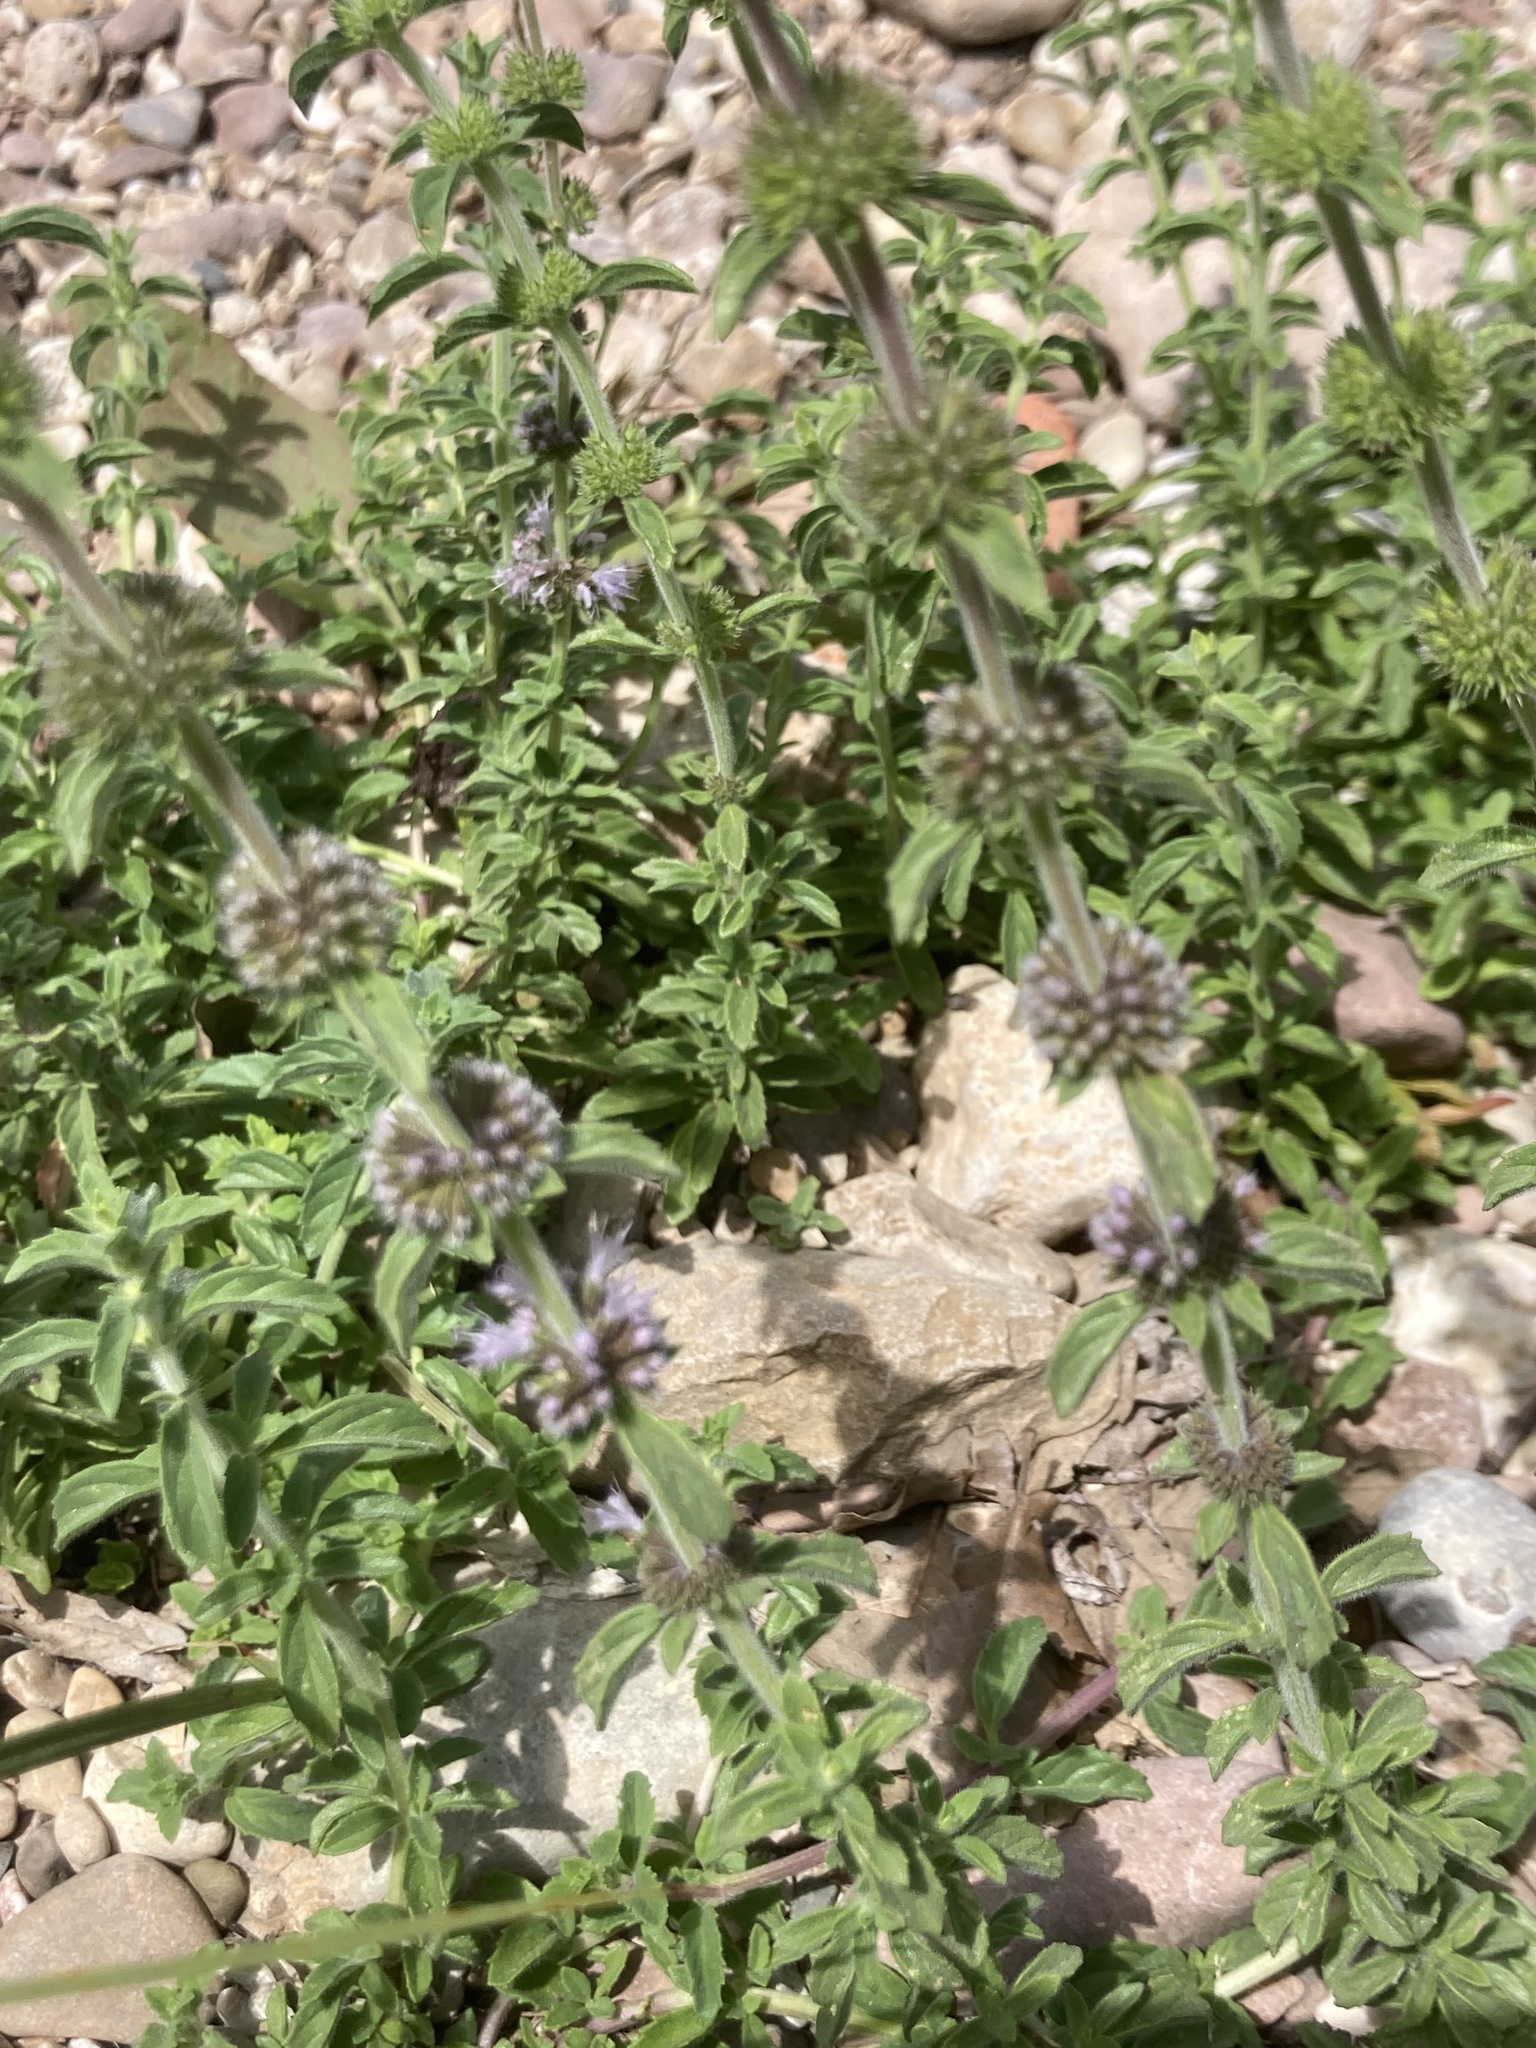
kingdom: Plantae
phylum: Tracheophyta
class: Magnoliopsida
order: Lamiales
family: Lamiaceae
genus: Mentha
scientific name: Mentha pulegium
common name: Pennyroyal
